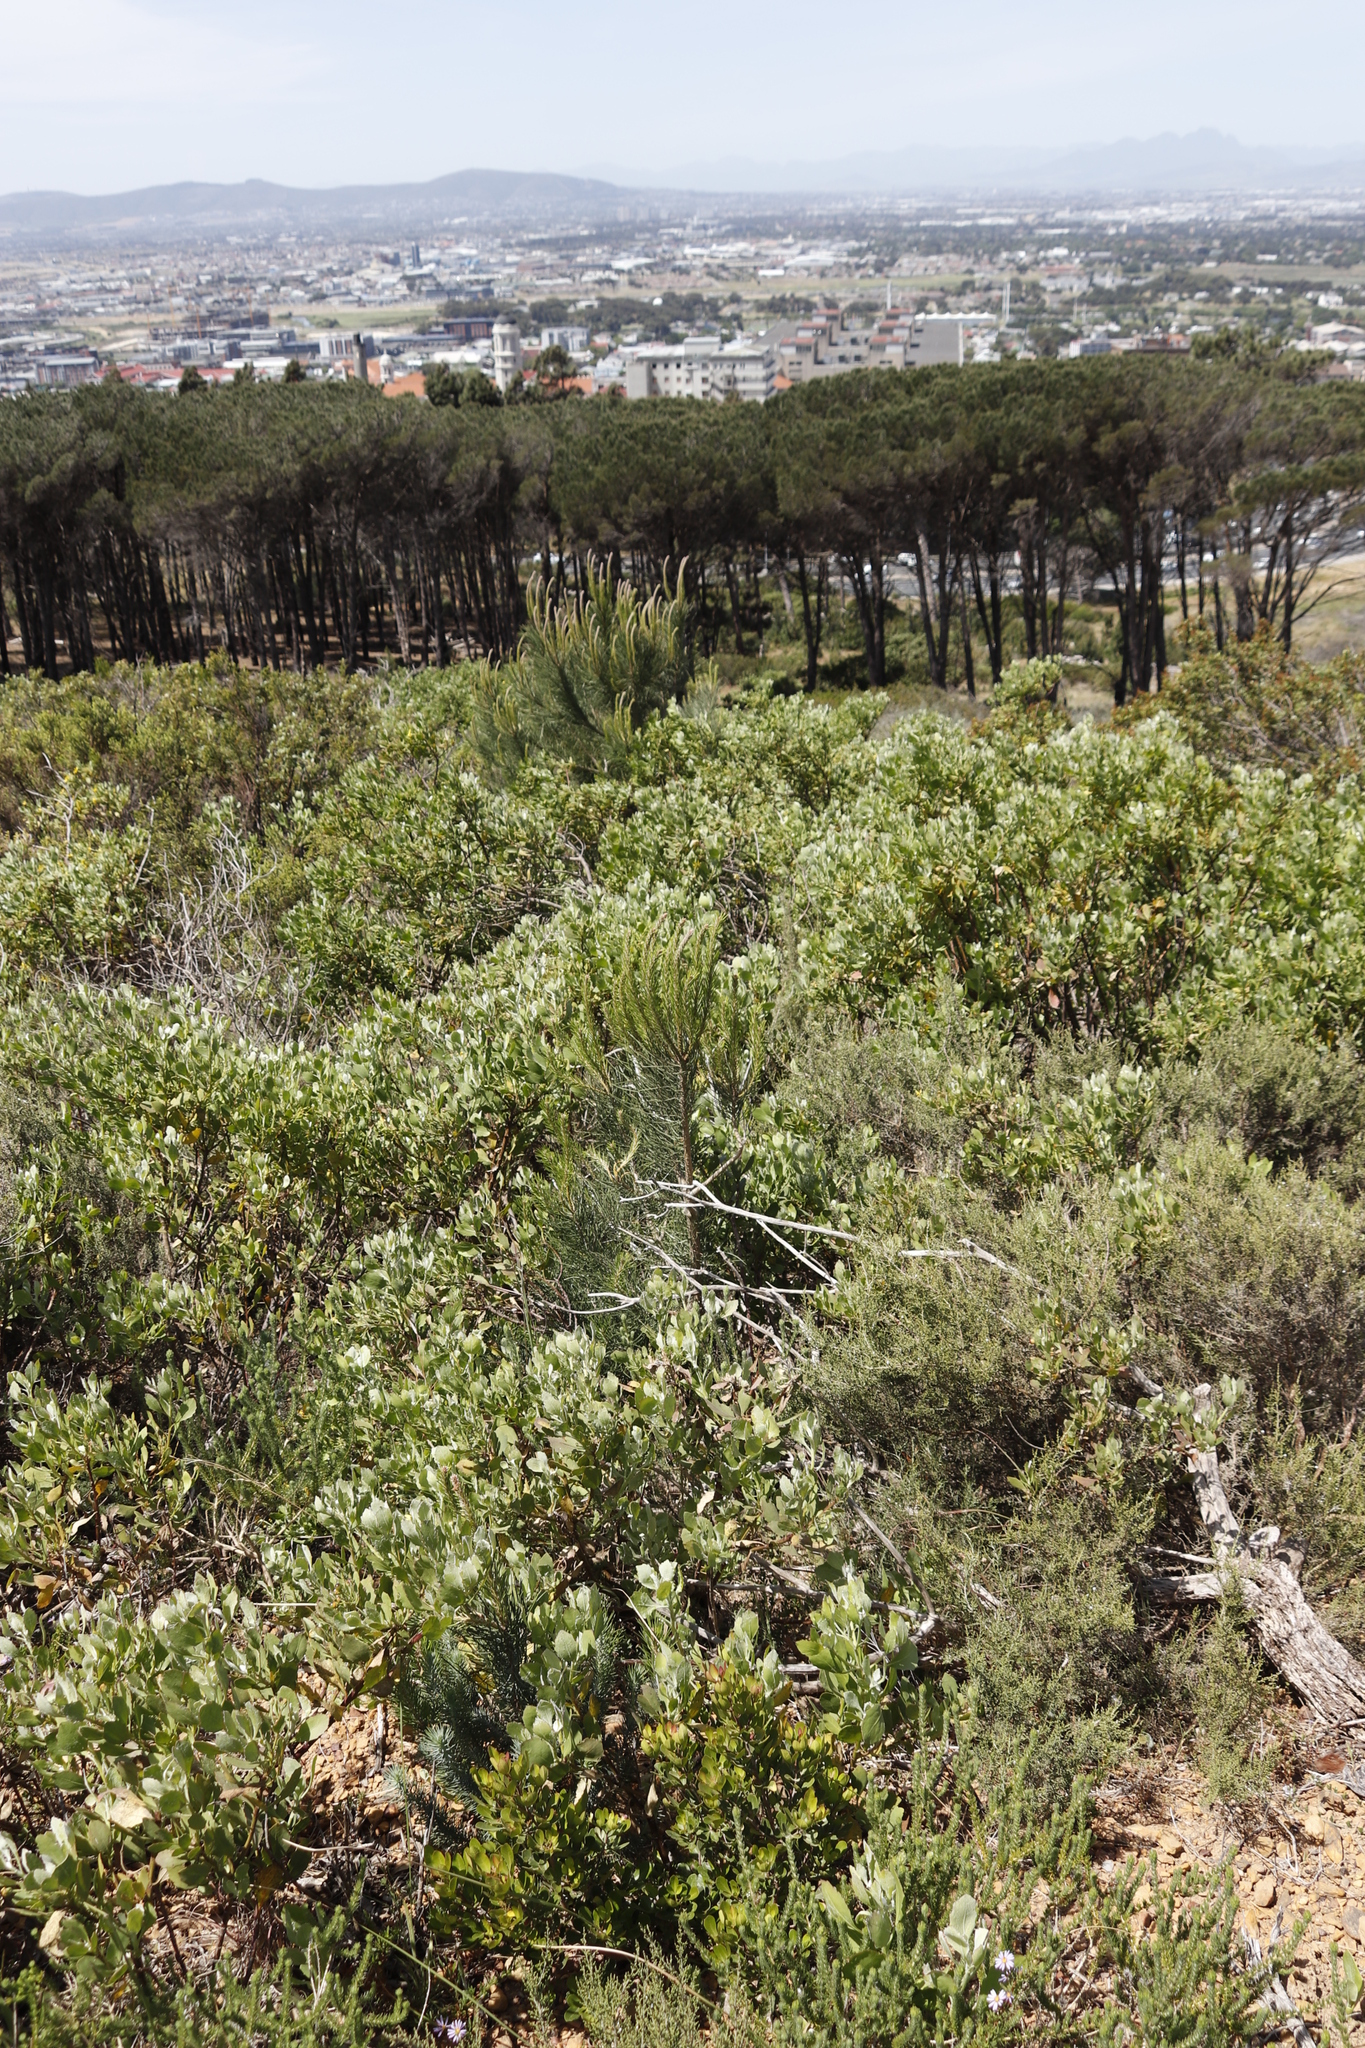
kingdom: Plantae
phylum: Tracheophyta
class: Pinopsida
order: Pinales
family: Pinaceae
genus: Pinus
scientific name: Pinus pinaster
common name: Maritime pine
